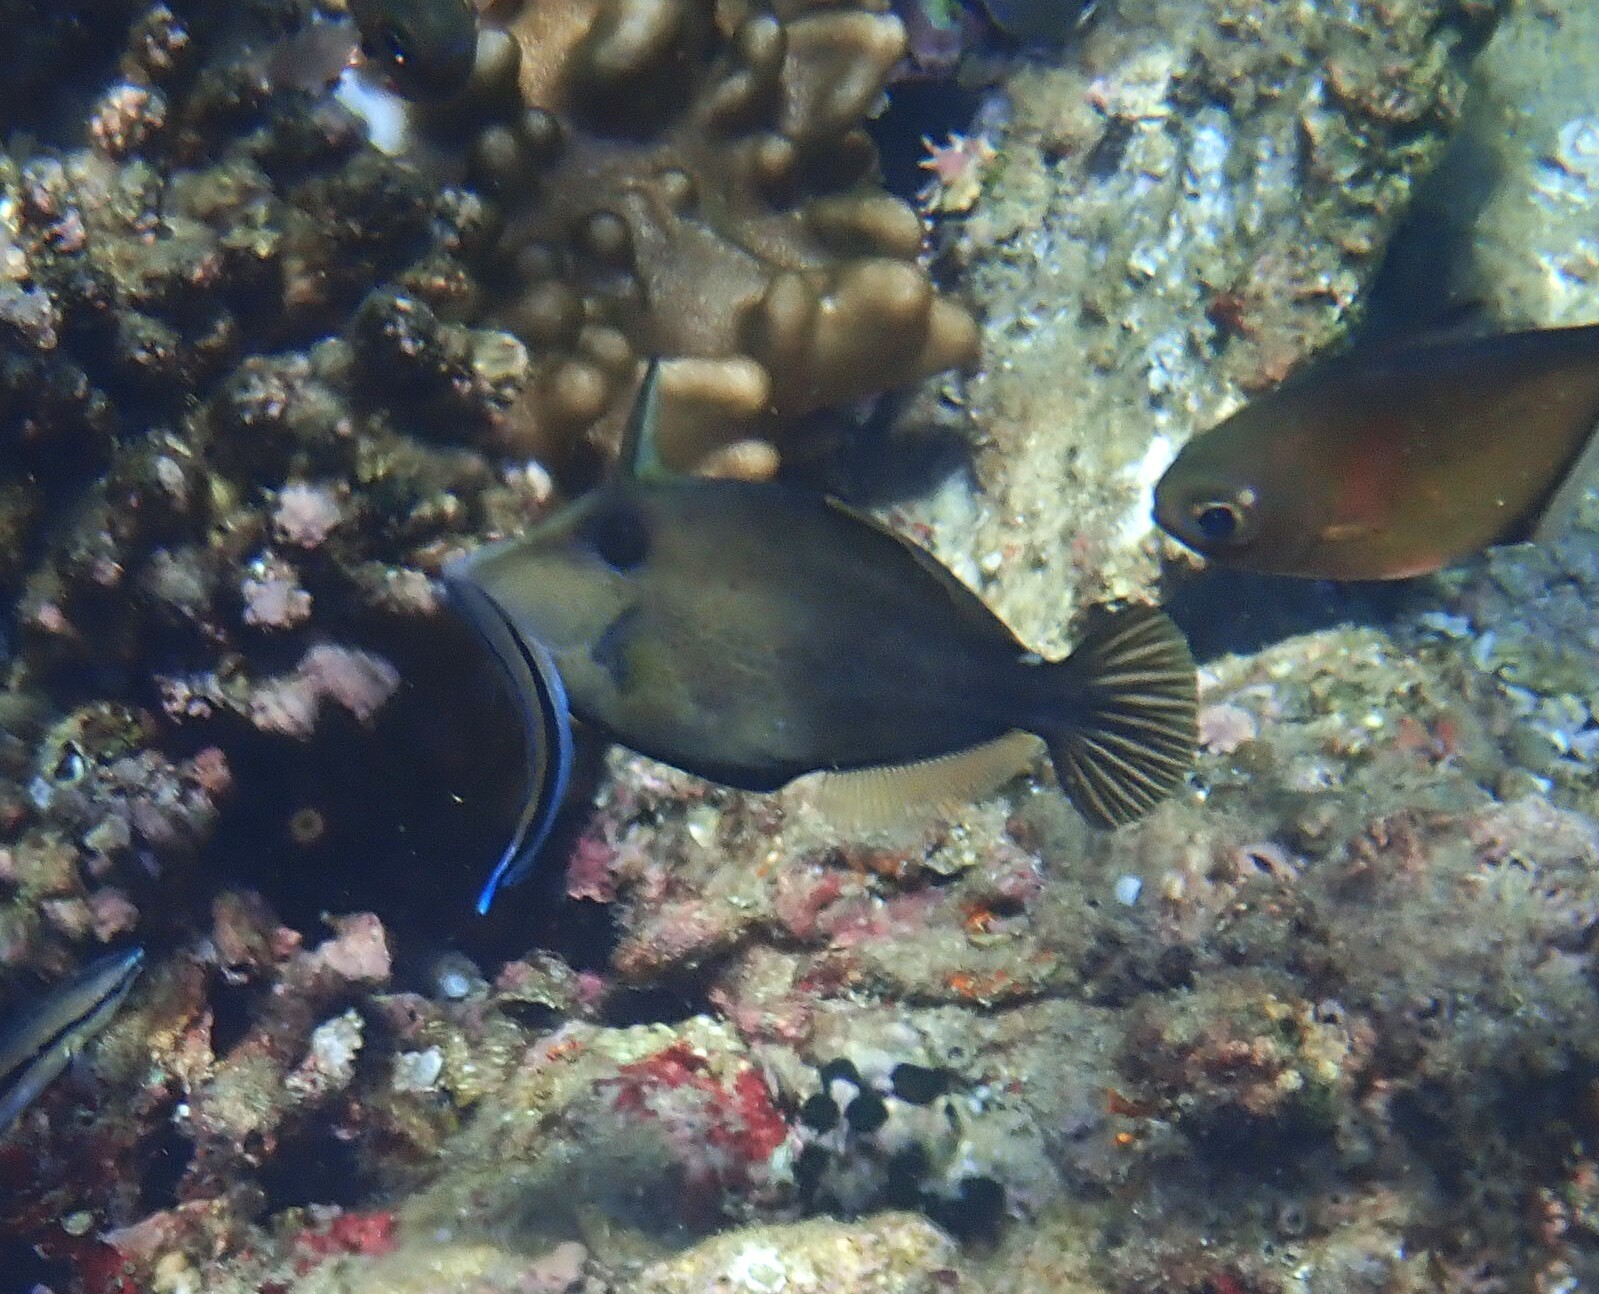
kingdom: Animalia
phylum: Chordata
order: Tetraodontiformes
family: Monacanthidae
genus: Cantherhines
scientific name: Cantherhines pardalis
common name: Honeycomb filefish
